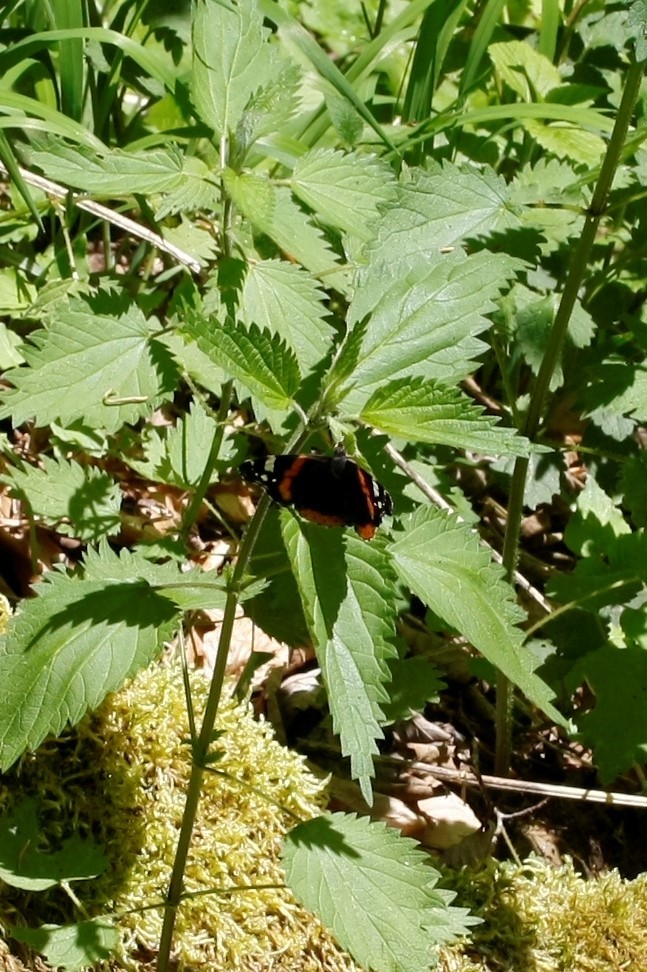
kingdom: Animalia
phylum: Arthropoda
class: Insecta
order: Lepidoptera
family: Nymphalidae
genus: Vanessa
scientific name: Vanessa atalanta
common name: Red admiral
